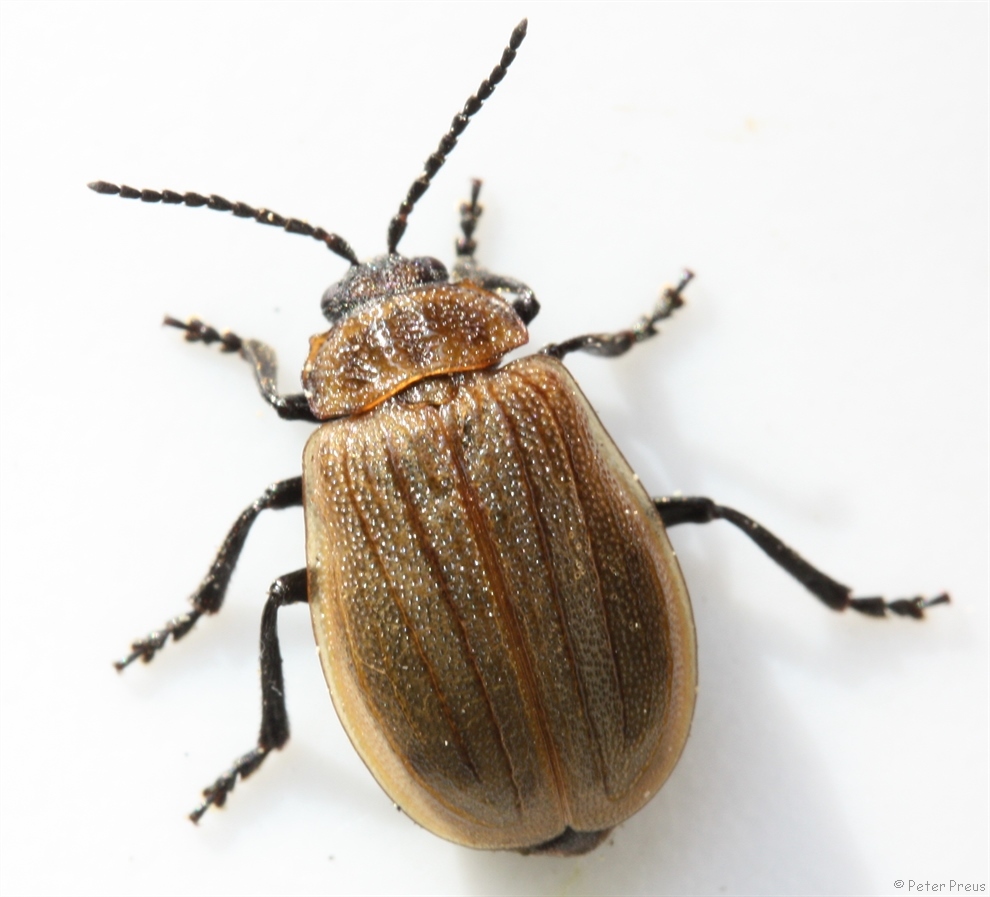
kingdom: Animalia
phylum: Arthropoda
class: Insecta
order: Coleoptera
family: Chrysomelidae
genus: Galeruca
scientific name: Galeruca pomonae
